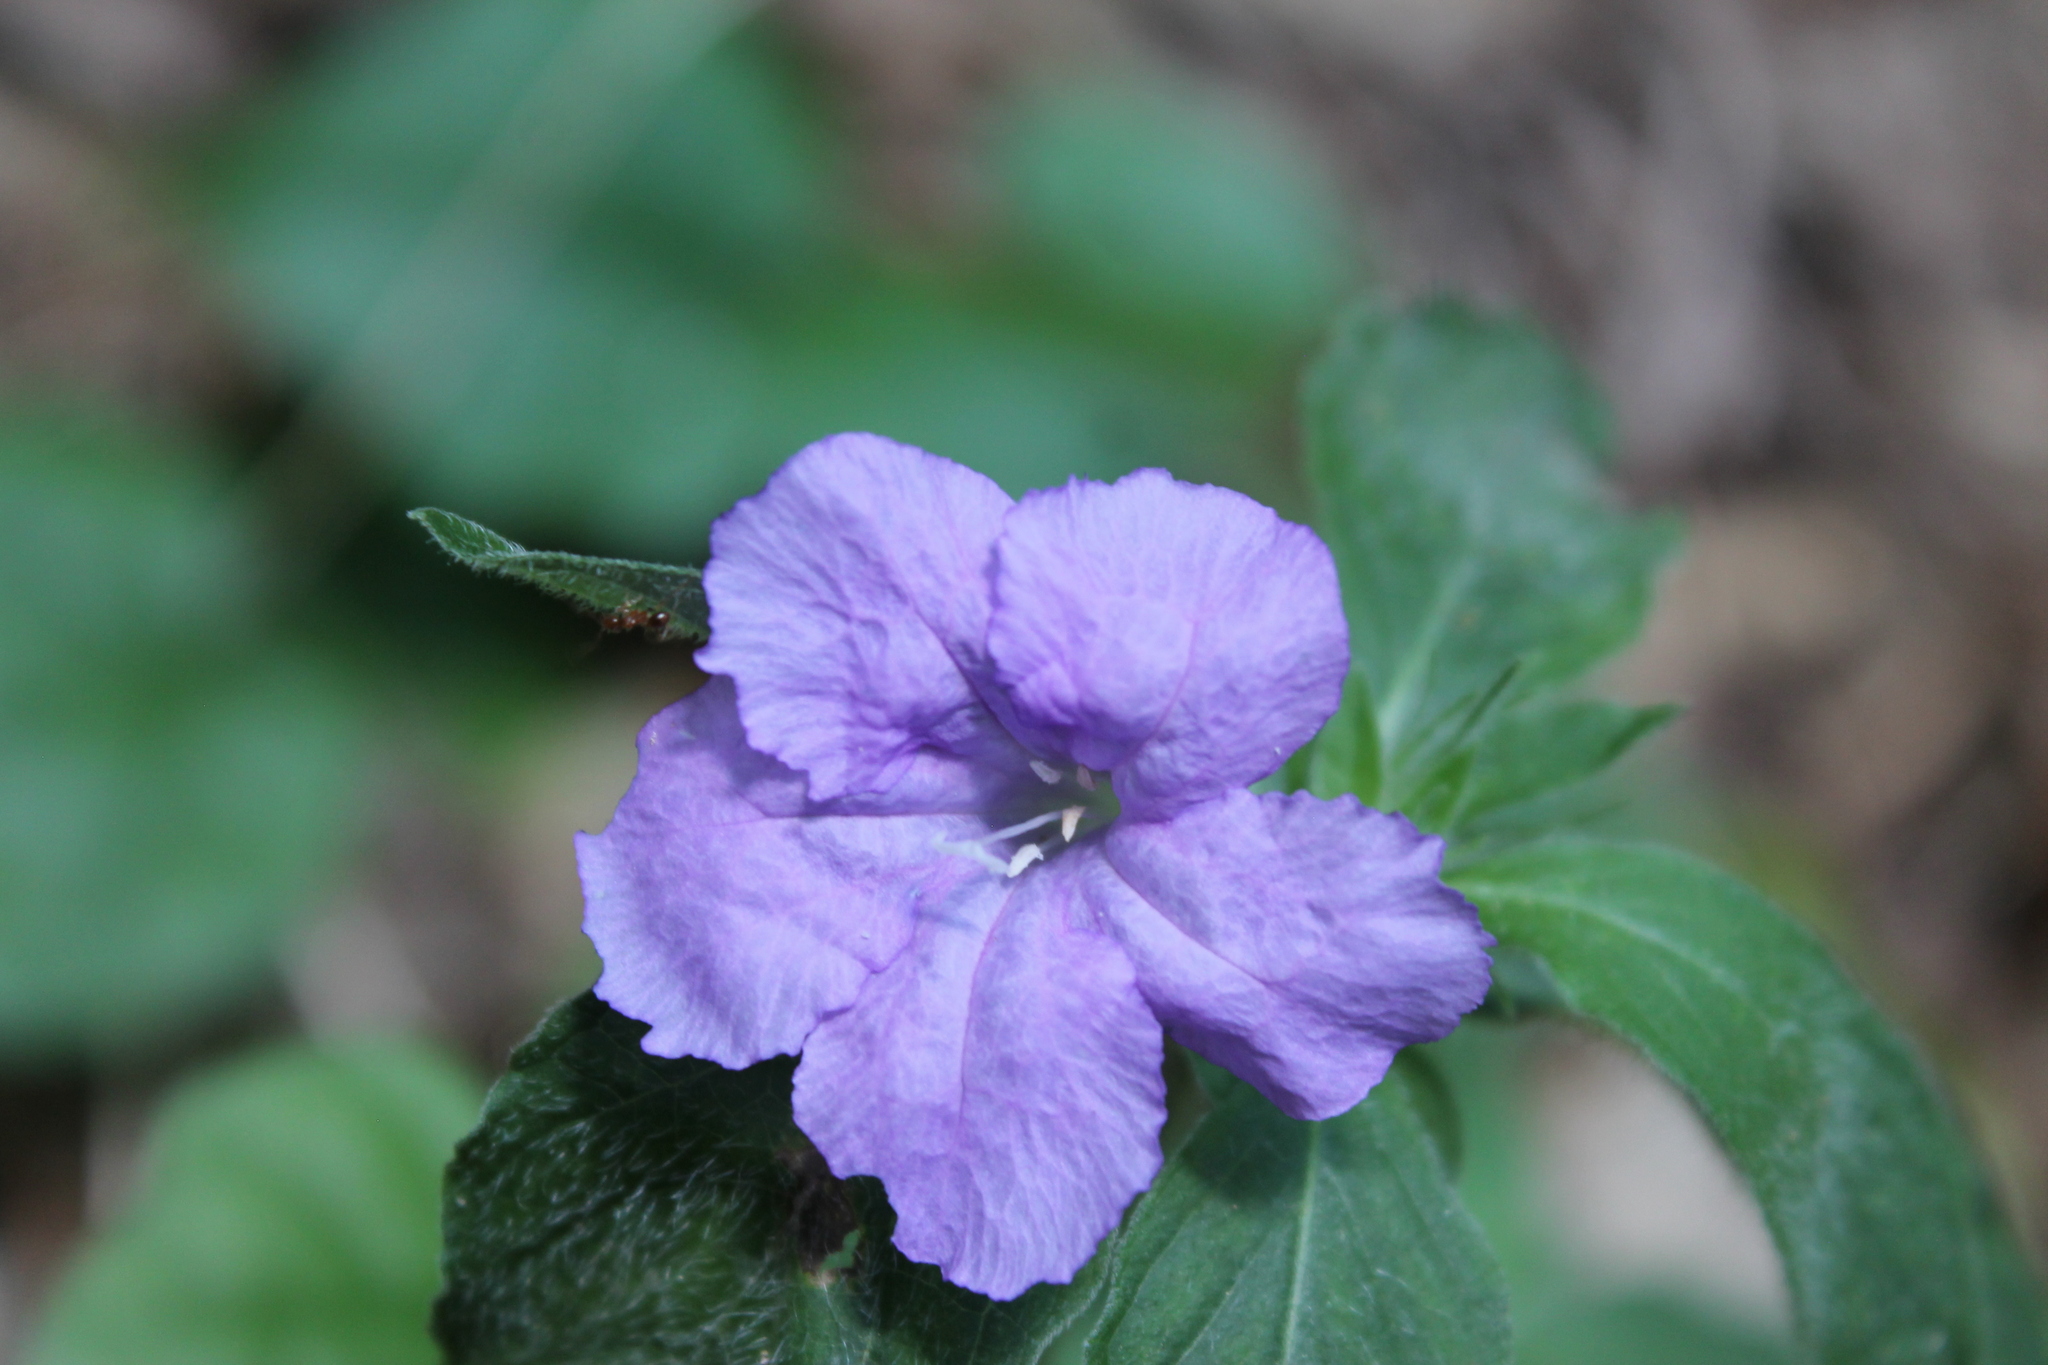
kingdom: Plantae
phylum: Tracheophyta
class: Magnoliopsida
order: Lamiales
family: Acanthaceae
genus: Ruellia
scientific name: Ruellia caroliniensis
